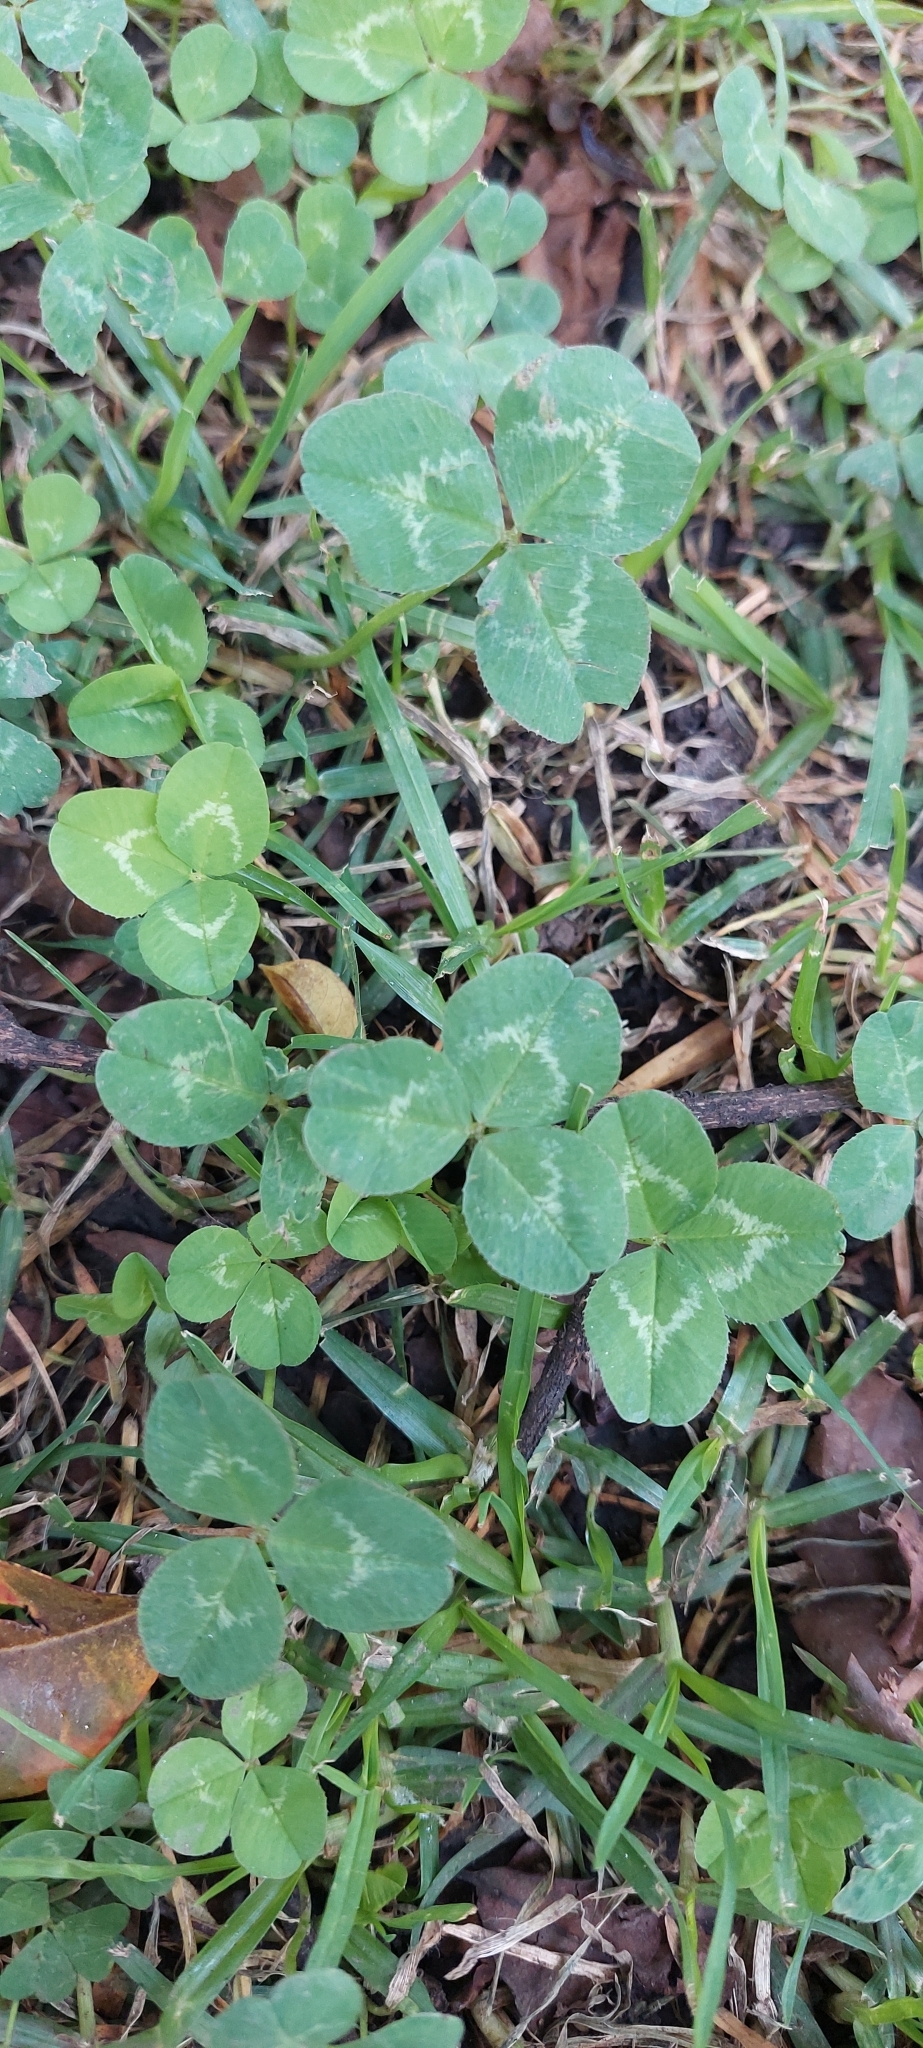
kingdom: Plantae
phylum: Tracheophyta
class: Magnoliopsida
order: Fabales
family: Fabaceae
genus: Trifolium
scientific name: Trifolium repens
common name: White clover
